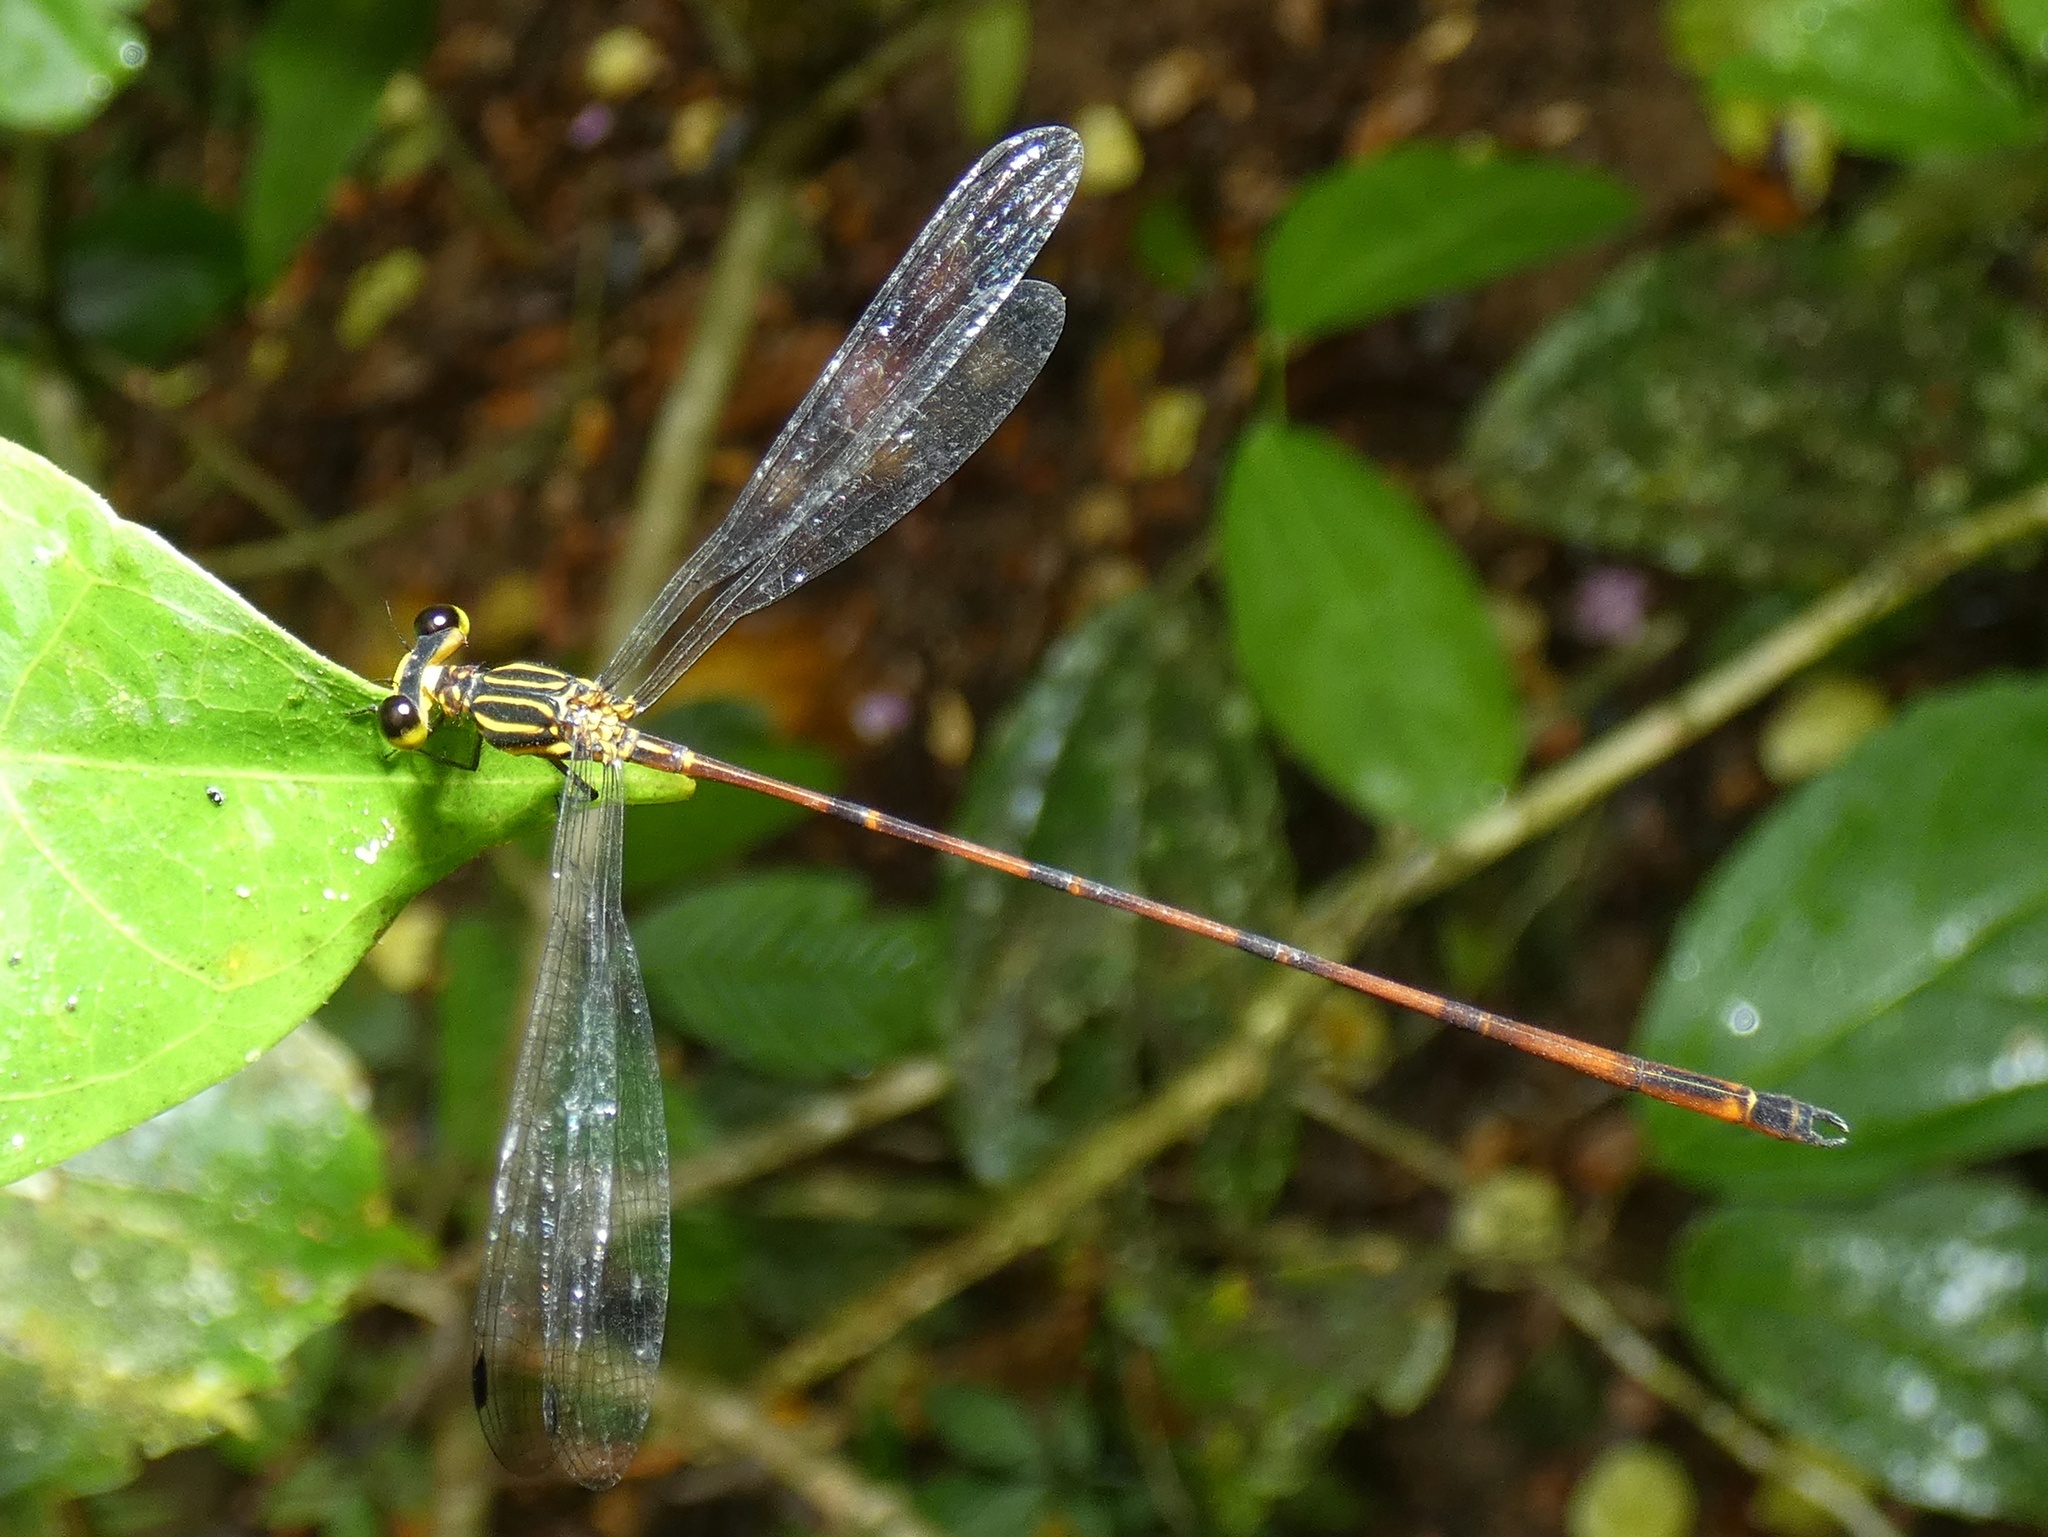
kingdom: Animalia
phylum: Arthropoda
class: Insecta
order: Odonata
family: Heteragrionidae
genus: Heteragrion
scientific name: Heteragrion mitratum
